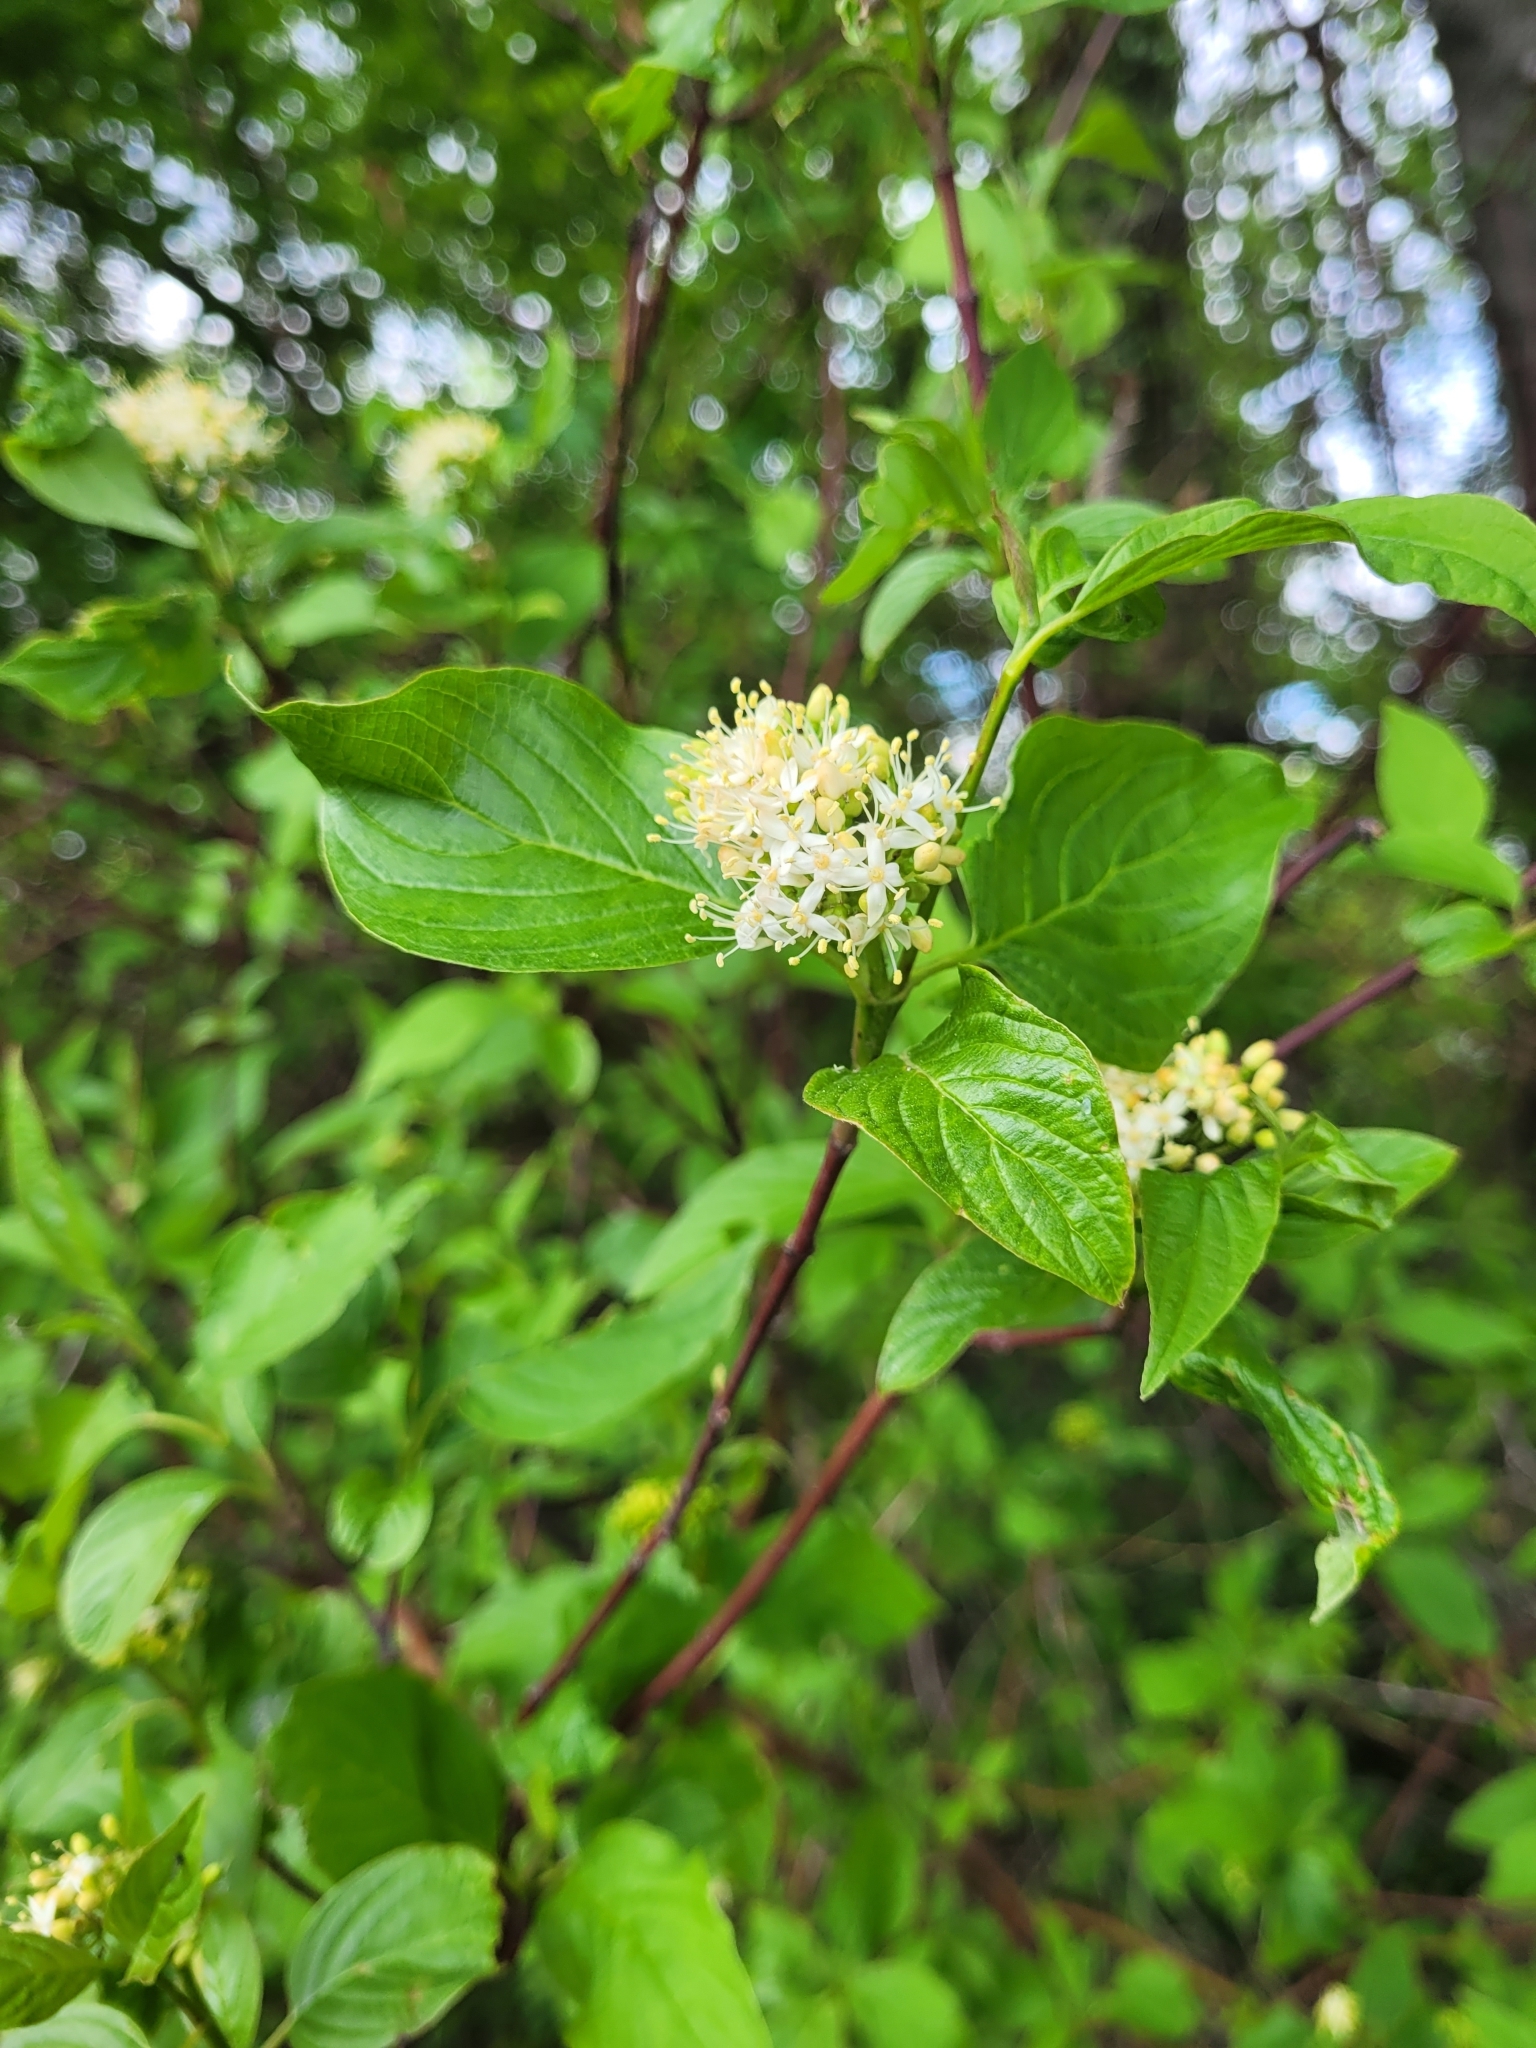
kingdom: Plantae
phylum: Tracheophyta
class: Magnoliopsida
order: Cornales
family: Cornaceae
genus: Cornus
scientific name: Cornus sericea
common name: Red-osier dogwood
